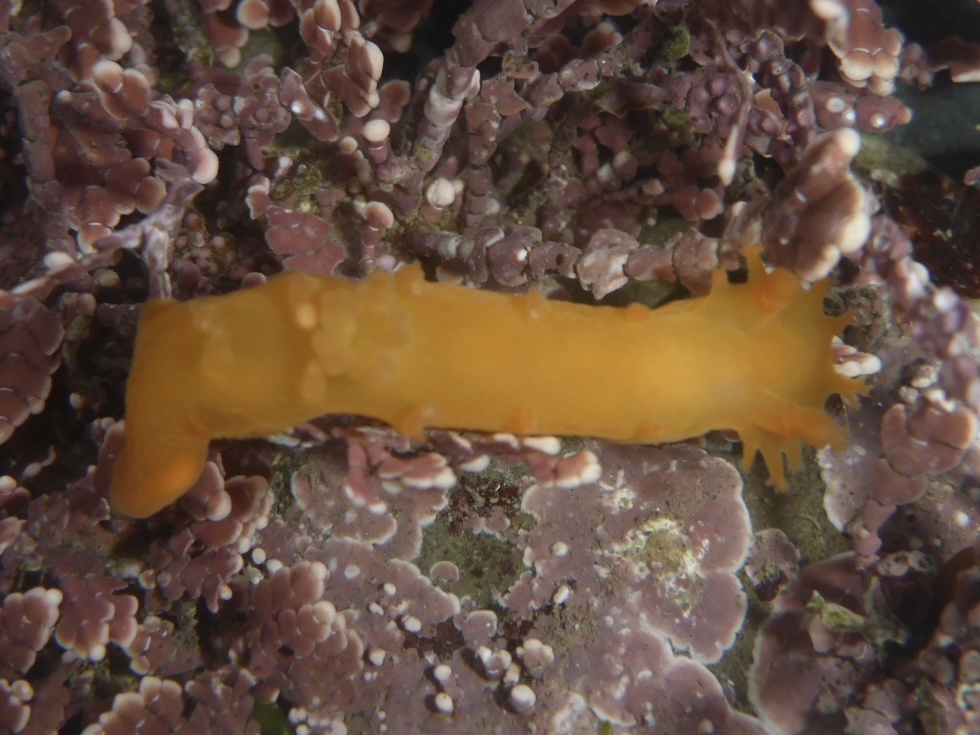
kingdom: Animalia
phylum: Mollusca
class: Gastropoda
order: Nudibranchia
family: Polyceridae
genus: Triopha
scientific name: Triopha maculata
